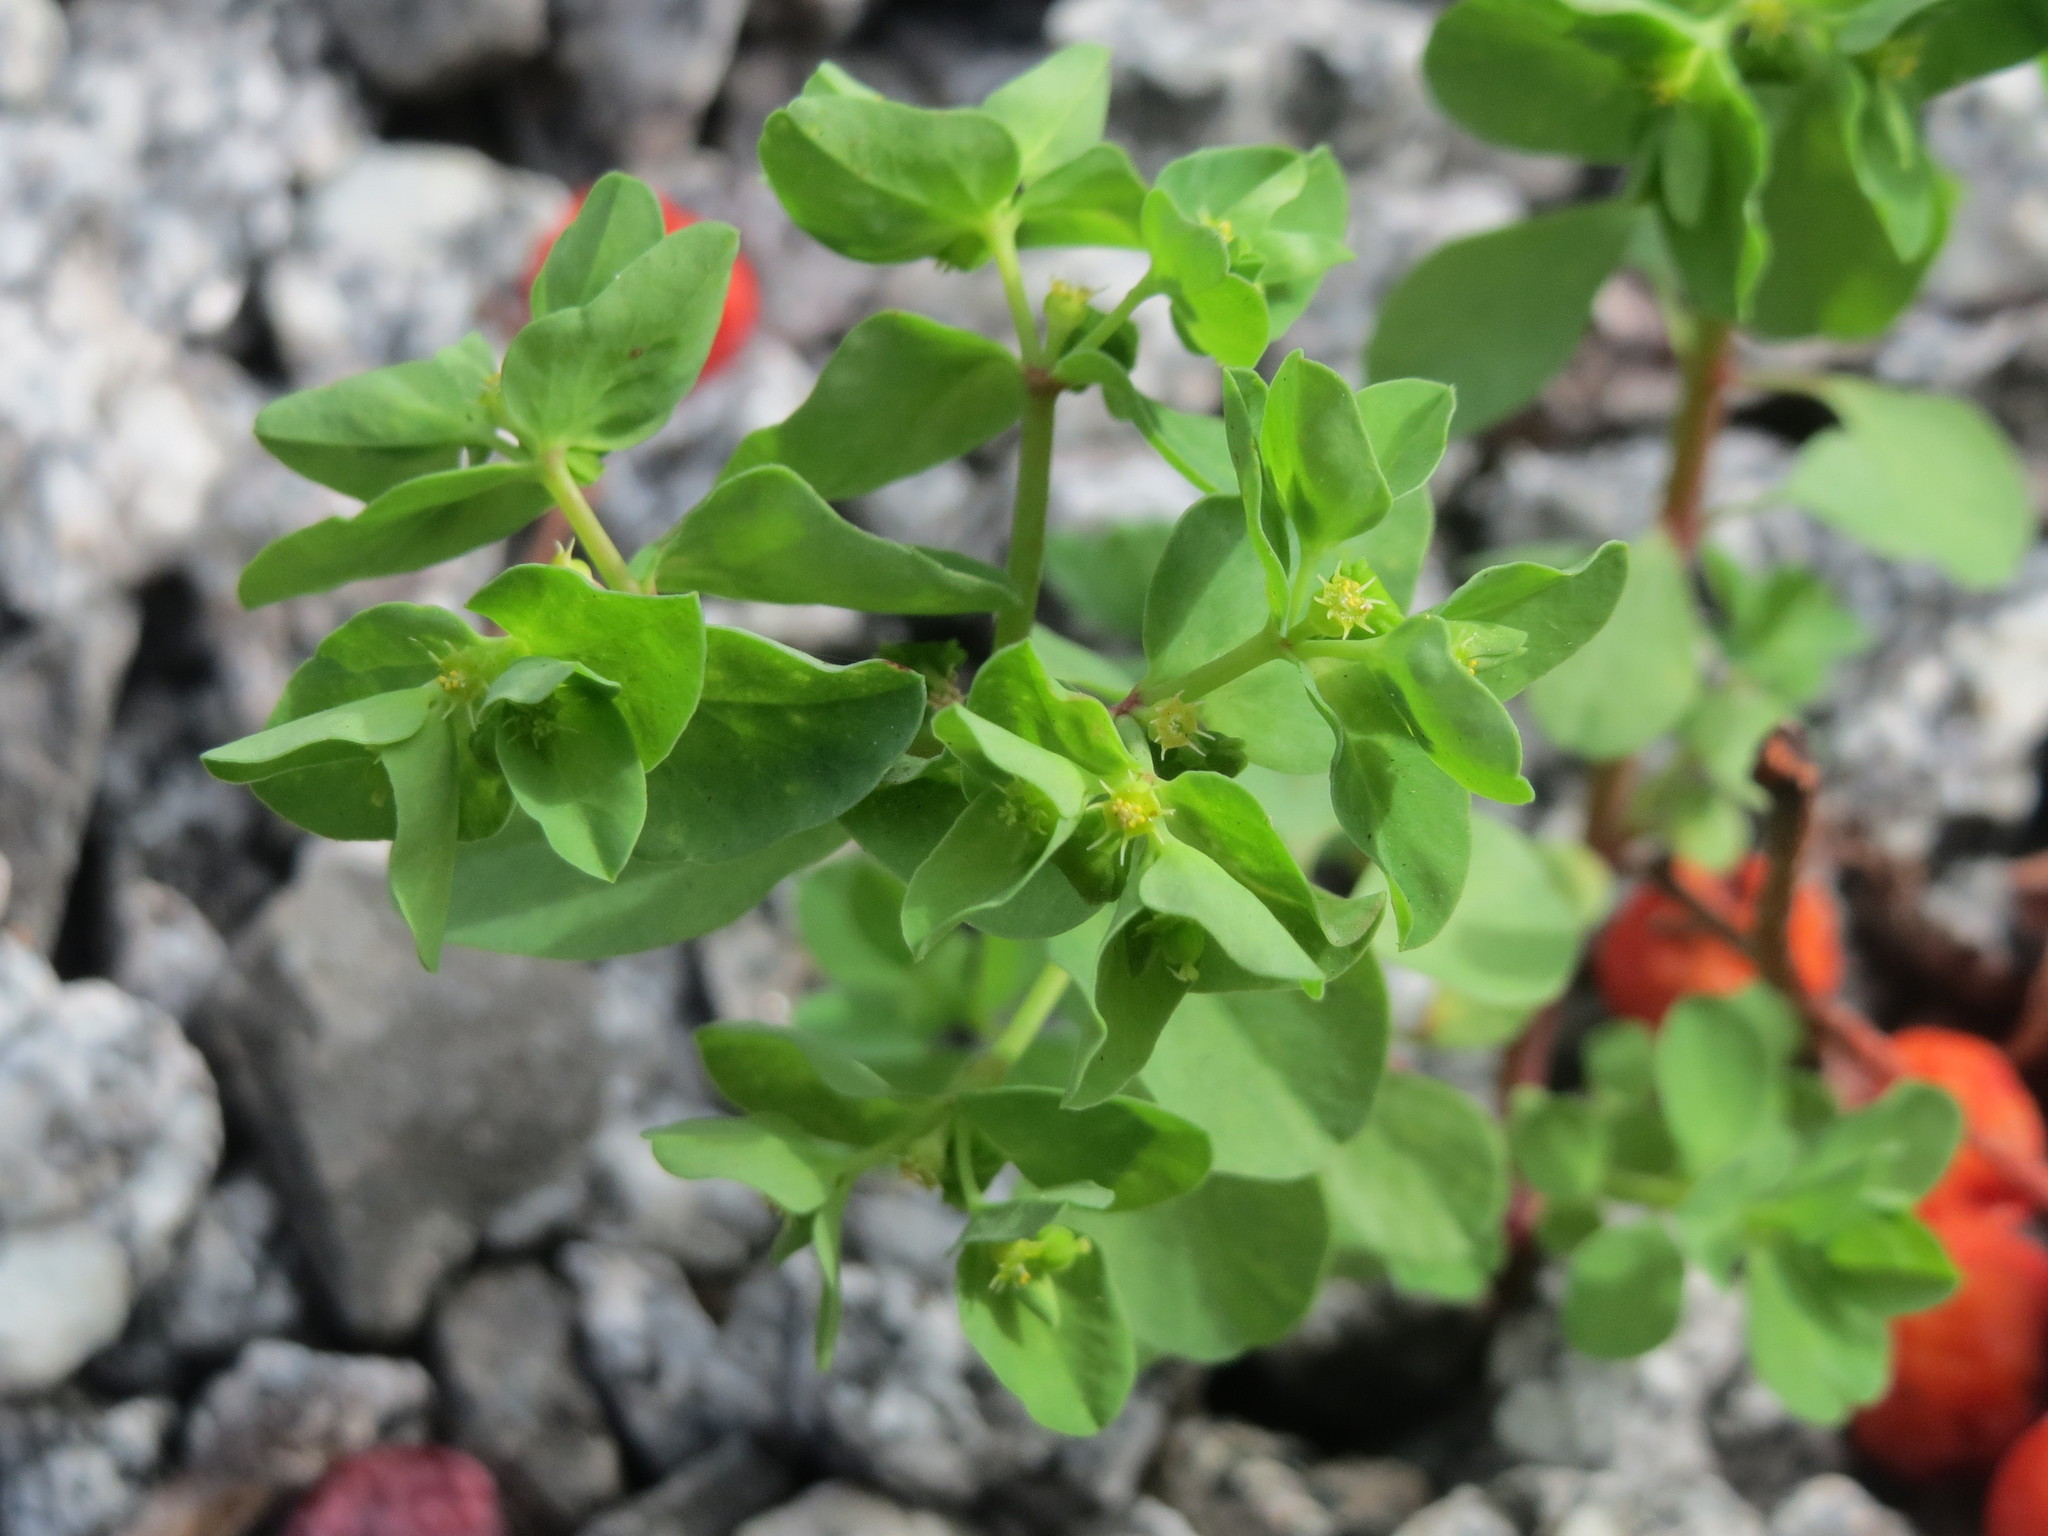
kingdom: Plantae
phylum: Tracheophyta
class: Magnoliopsida
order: Malpighiales
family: Euphorbiaceae
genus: Euphorbia
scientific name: Euphorbia peplus
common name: Petty spurge
